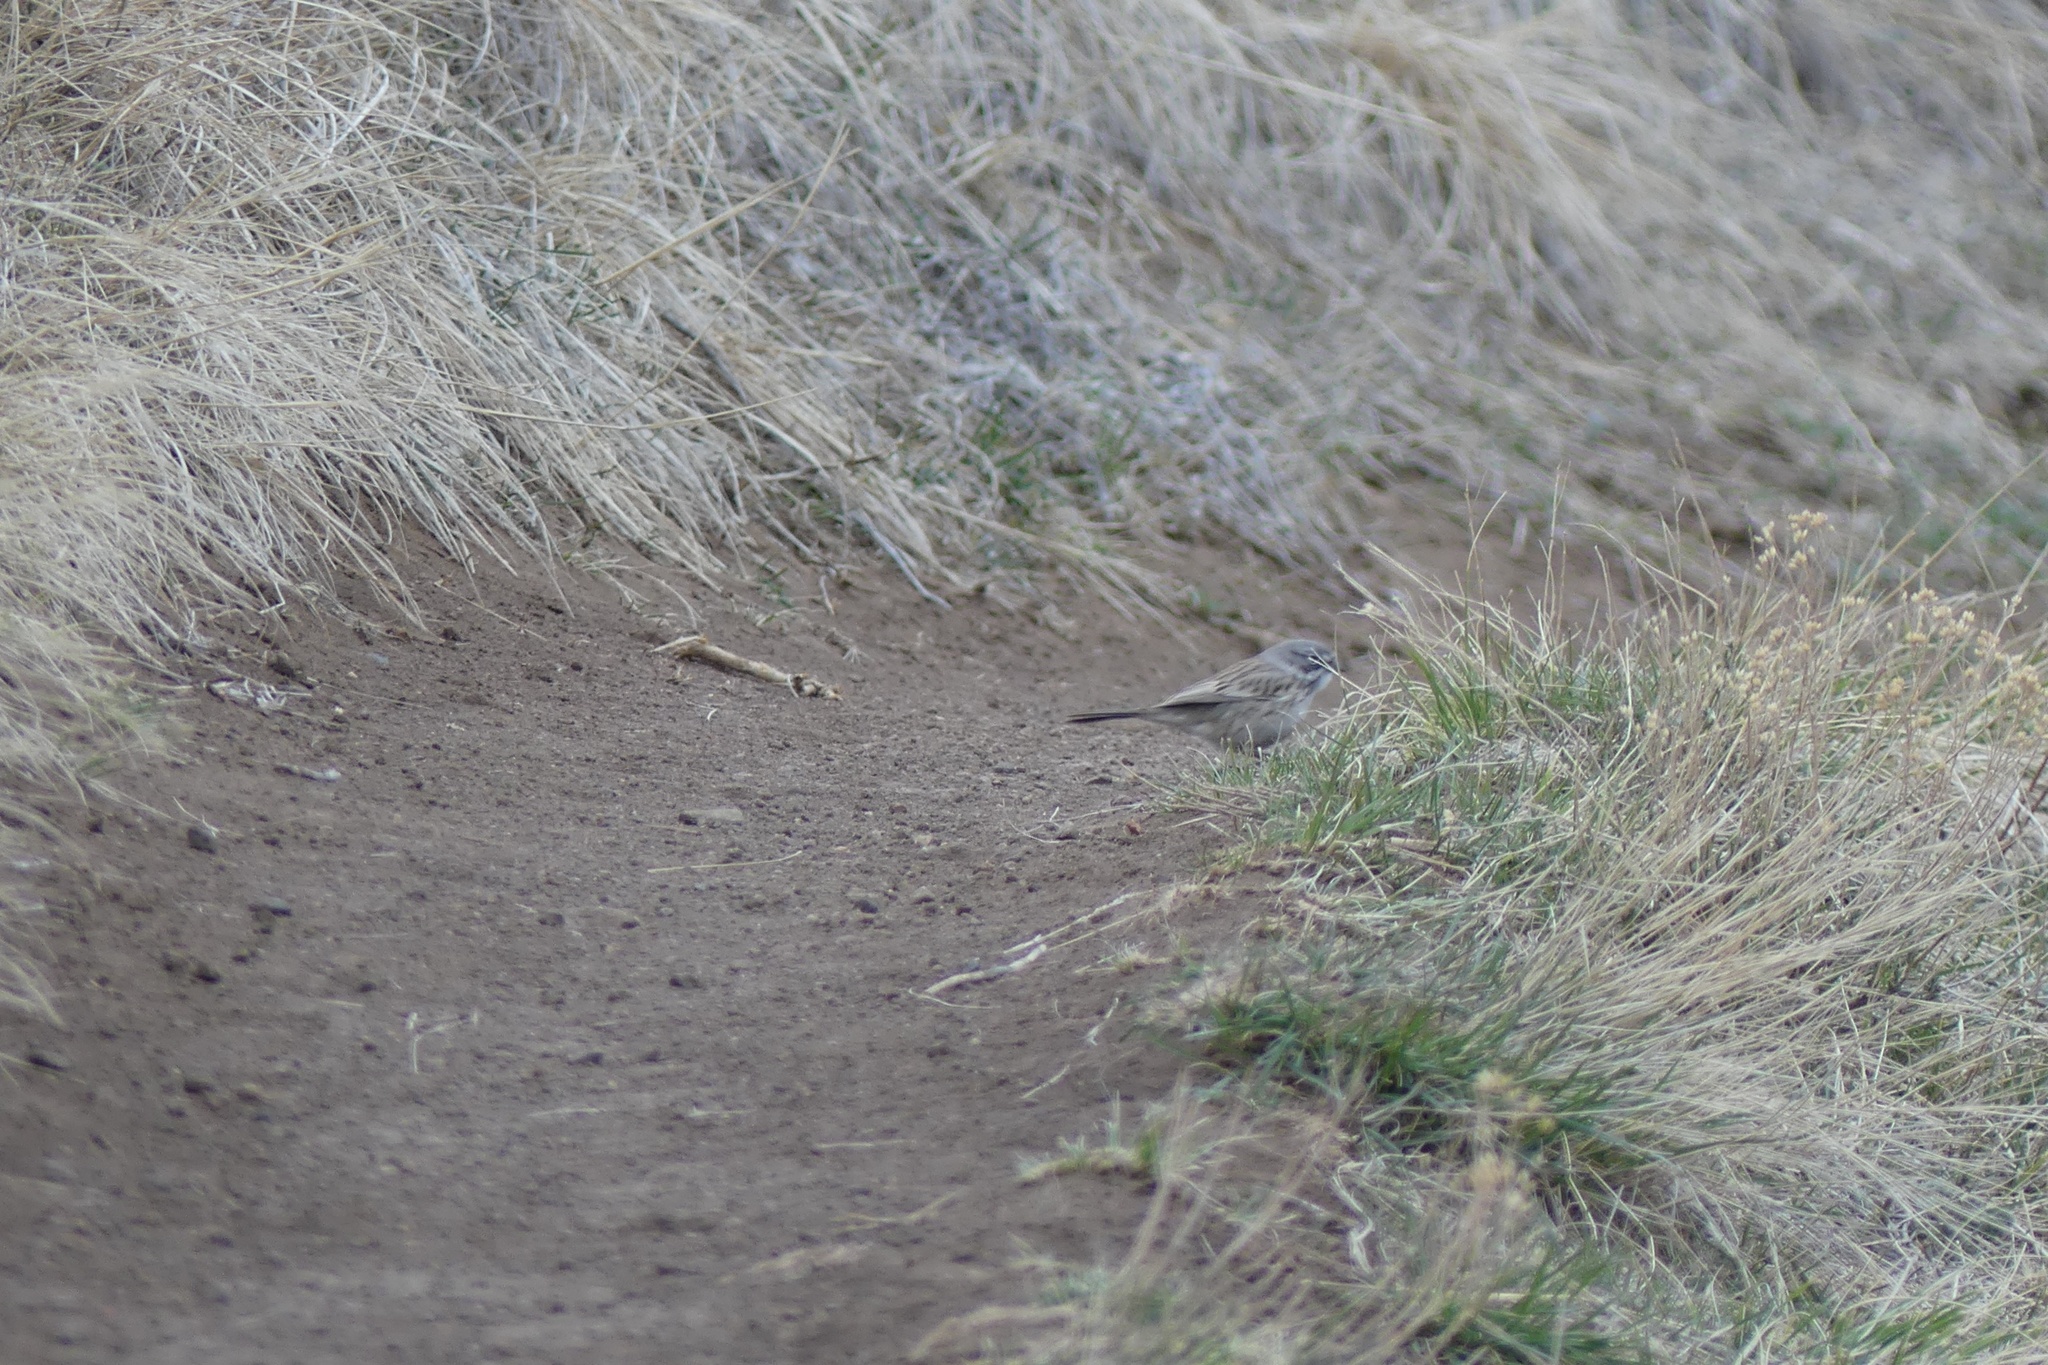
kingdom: Animalia
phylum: Chordata
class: Aves
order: Passeriformes
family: Passerellidae
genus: Artemisiospiza
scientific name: Artemisiospiza nevadensis
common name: Sagebrush sparrow
